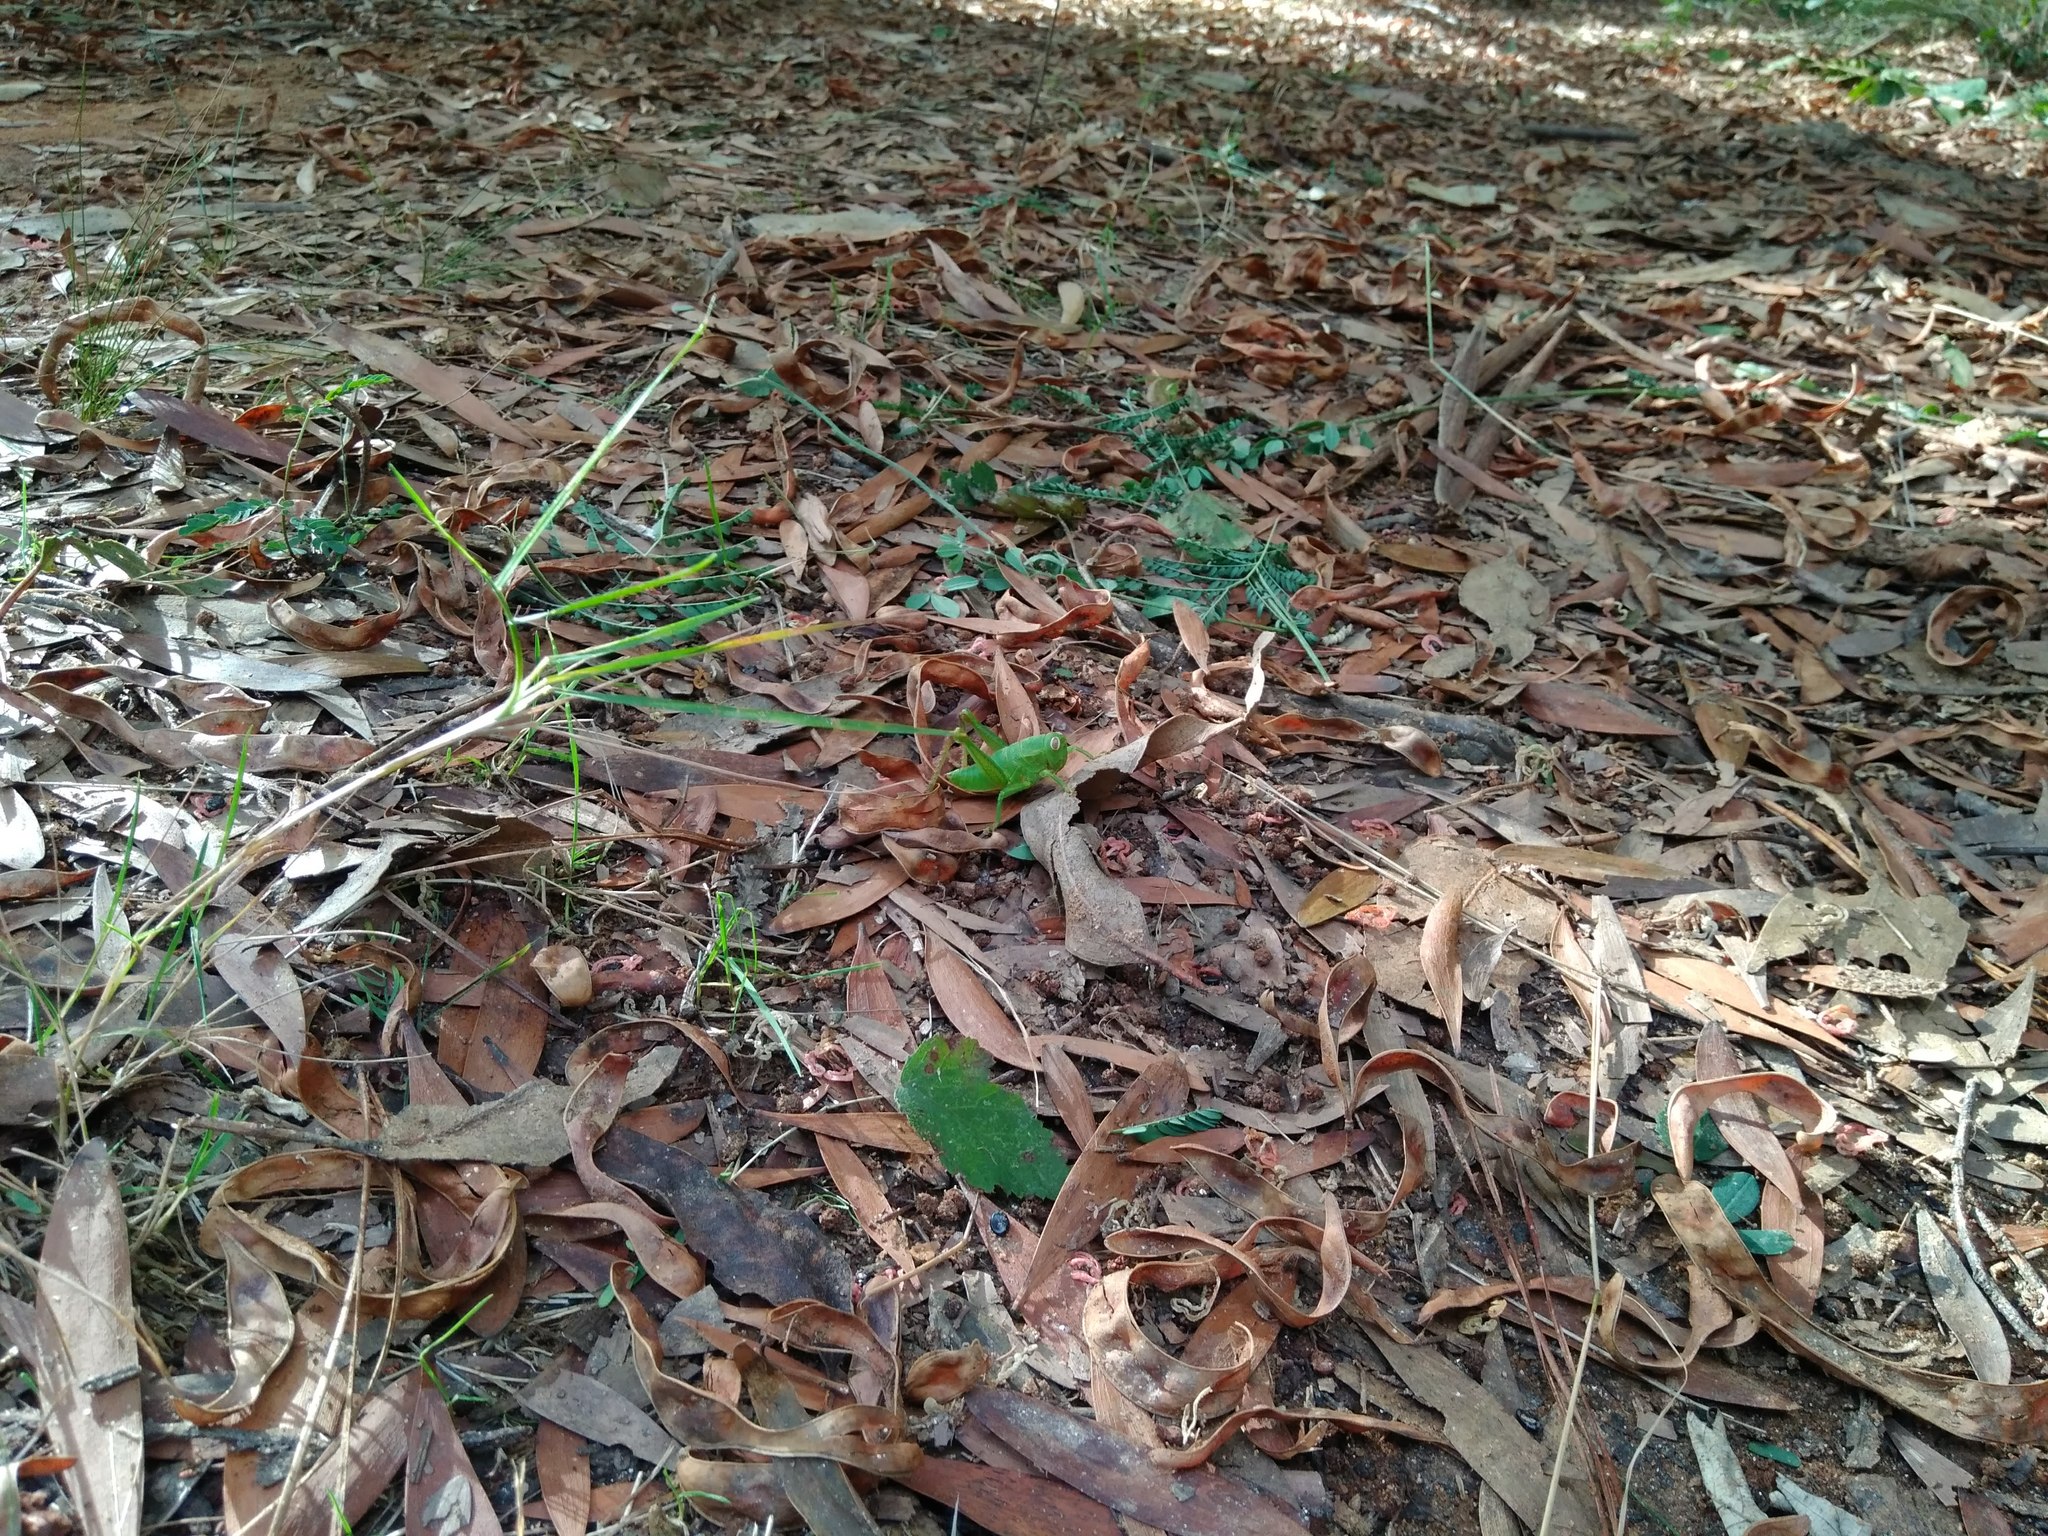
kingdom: Animalia
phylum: Arthropoda
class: Insecta
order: Orthoptera
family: Romaleidae
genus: Antandrus
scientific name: Antandrus viridis
